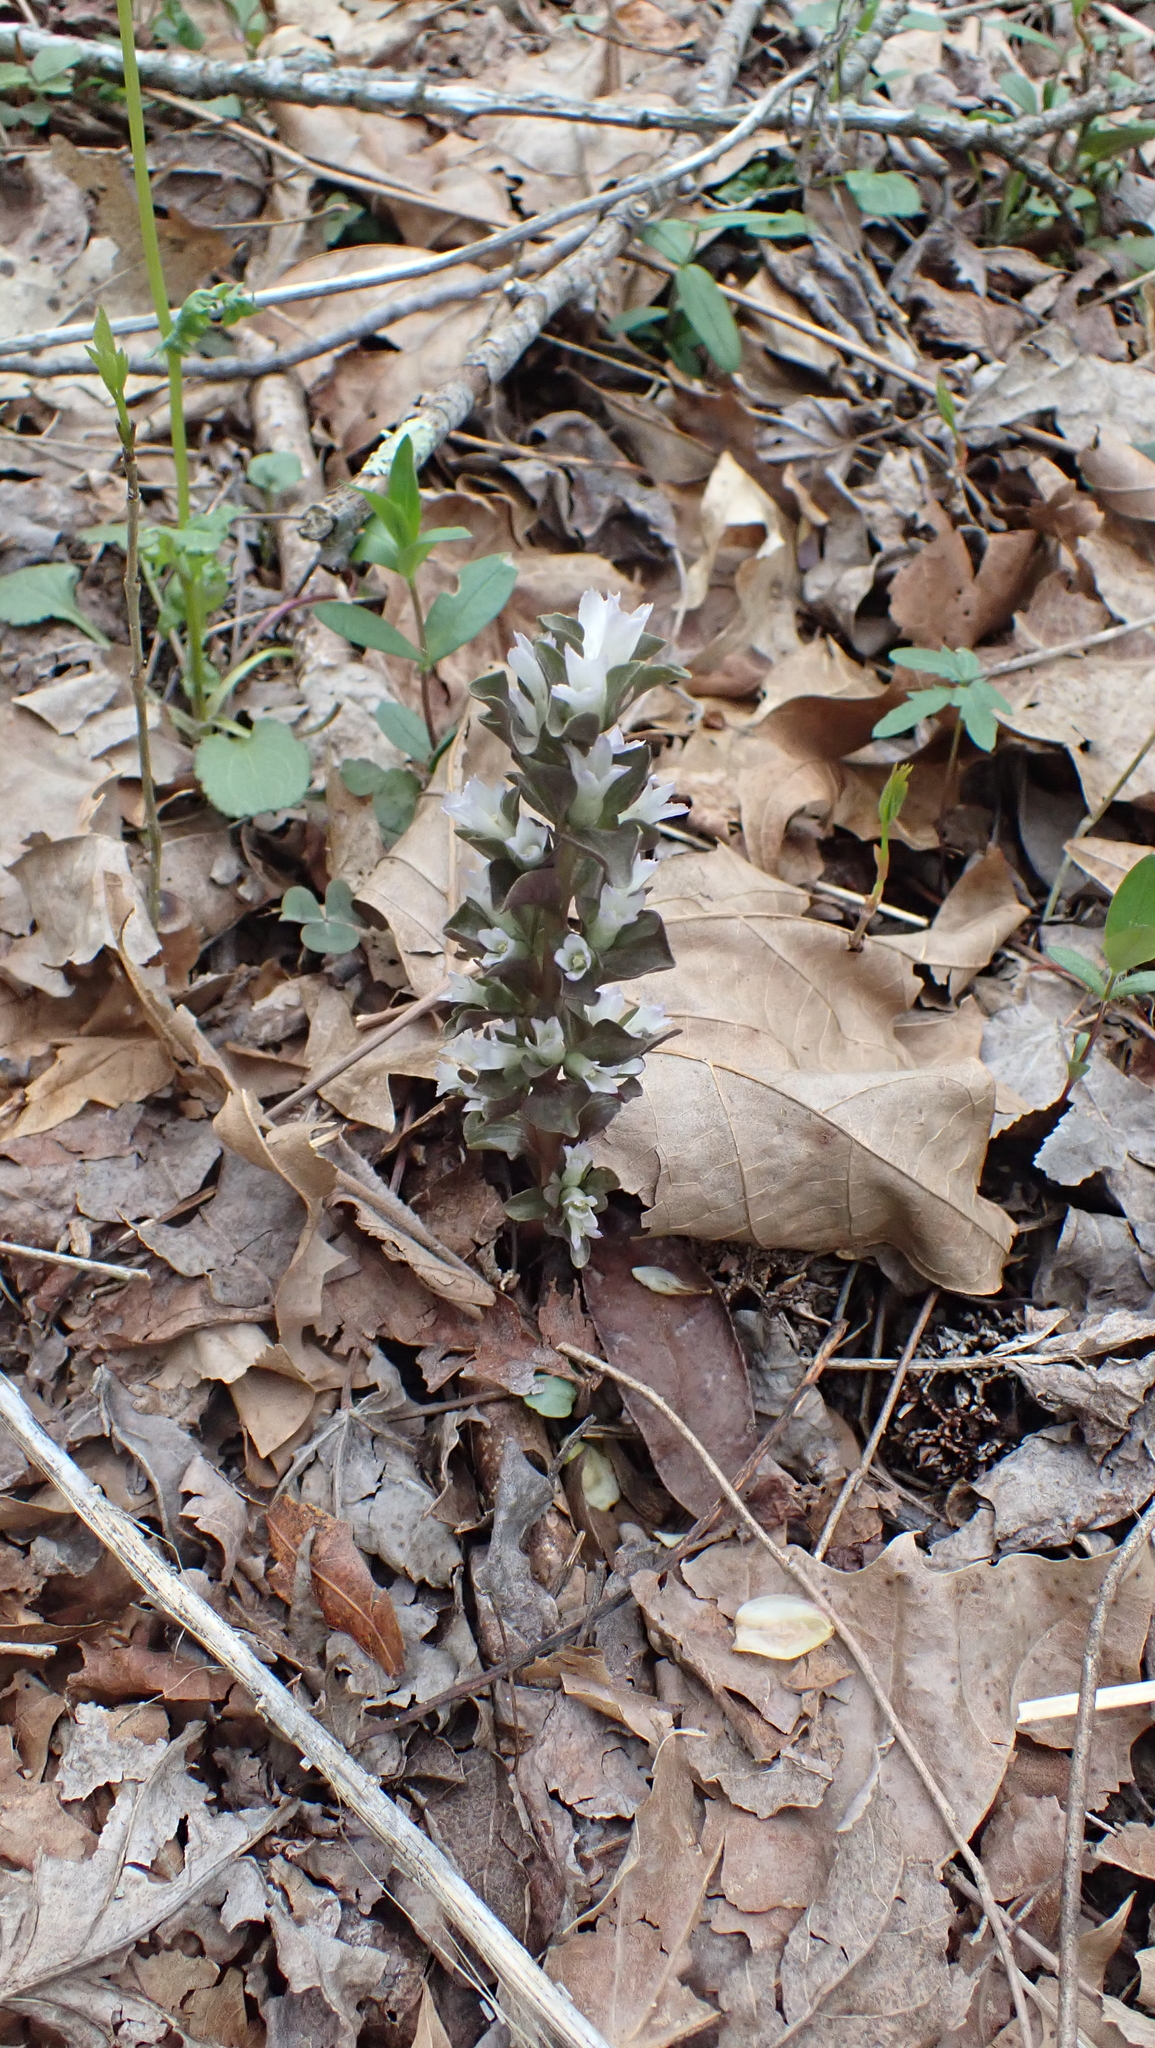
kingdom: Plantae
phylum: Tracheophyta
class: Magnoliopsida
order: Gentianales
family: Gentianaceae
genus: Obolaria
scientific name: Obolaria virginica
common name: Pennywort
